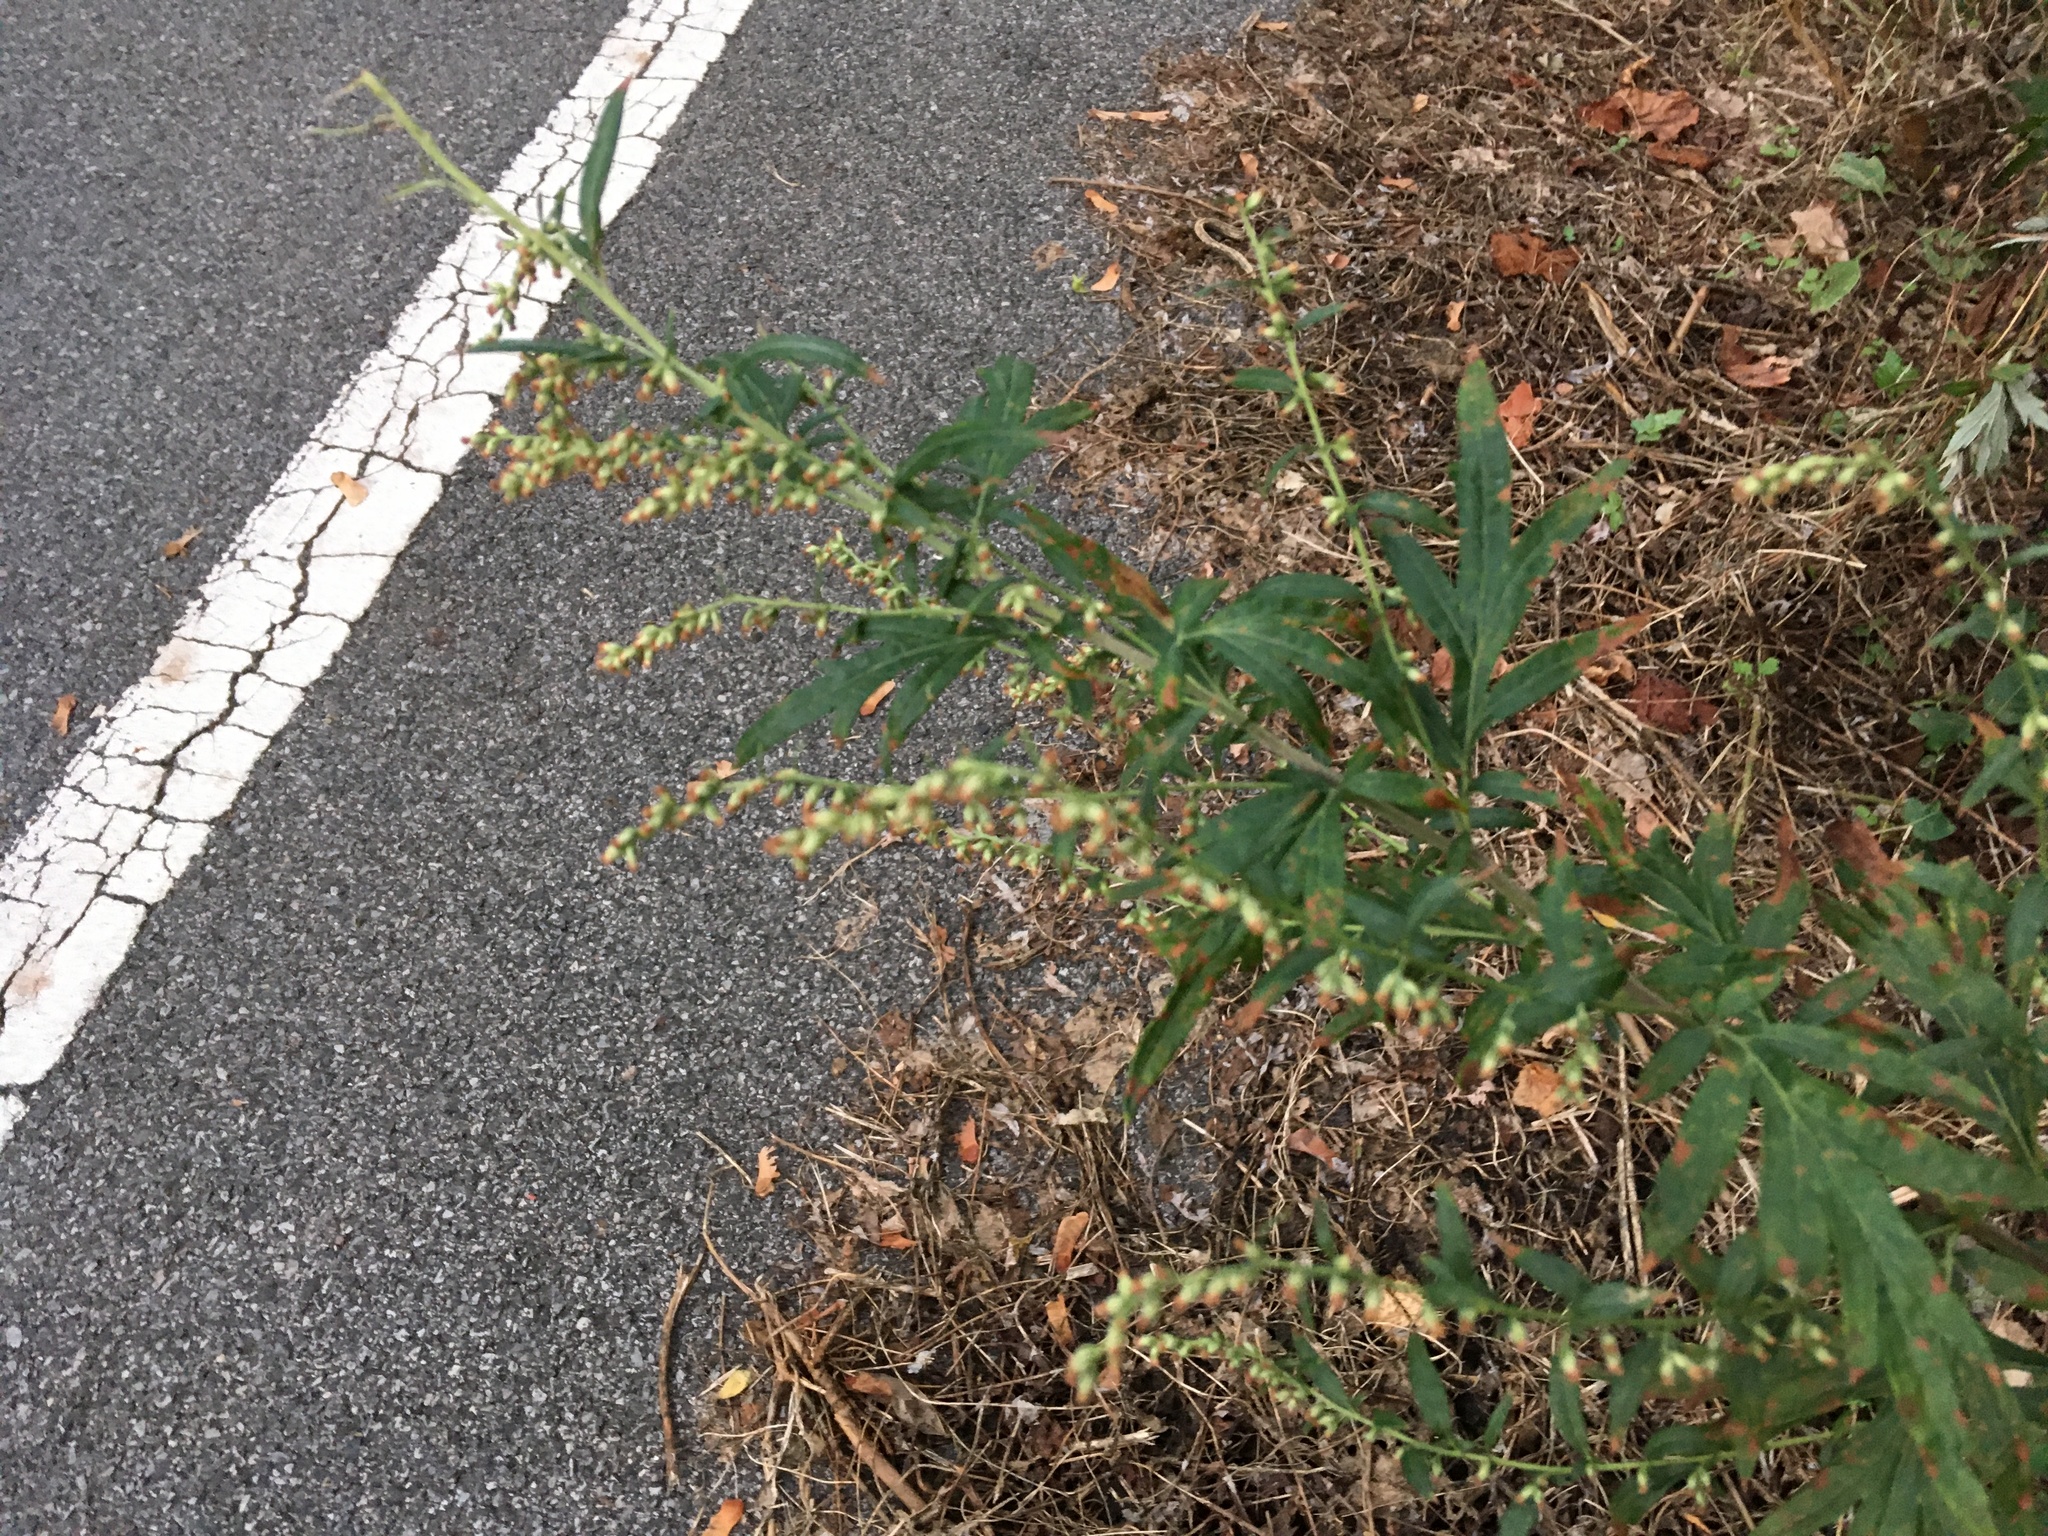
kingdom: Plantae
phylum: Tracheophyta
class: Magnoliopsida
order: Asterales
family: Asteraceae
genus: Artemisia
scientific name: Artemisia vulgaris
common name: Mugwort
